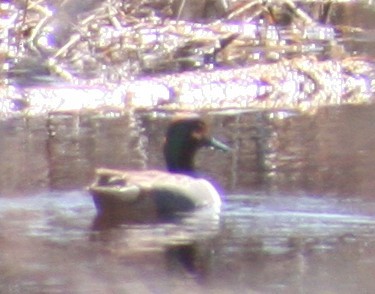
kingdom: Animalia
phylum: Chordata
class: Aves
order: Anseriformes
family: Anatidae
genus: Anas
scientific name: Anas crecca
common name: Eurasian teal
